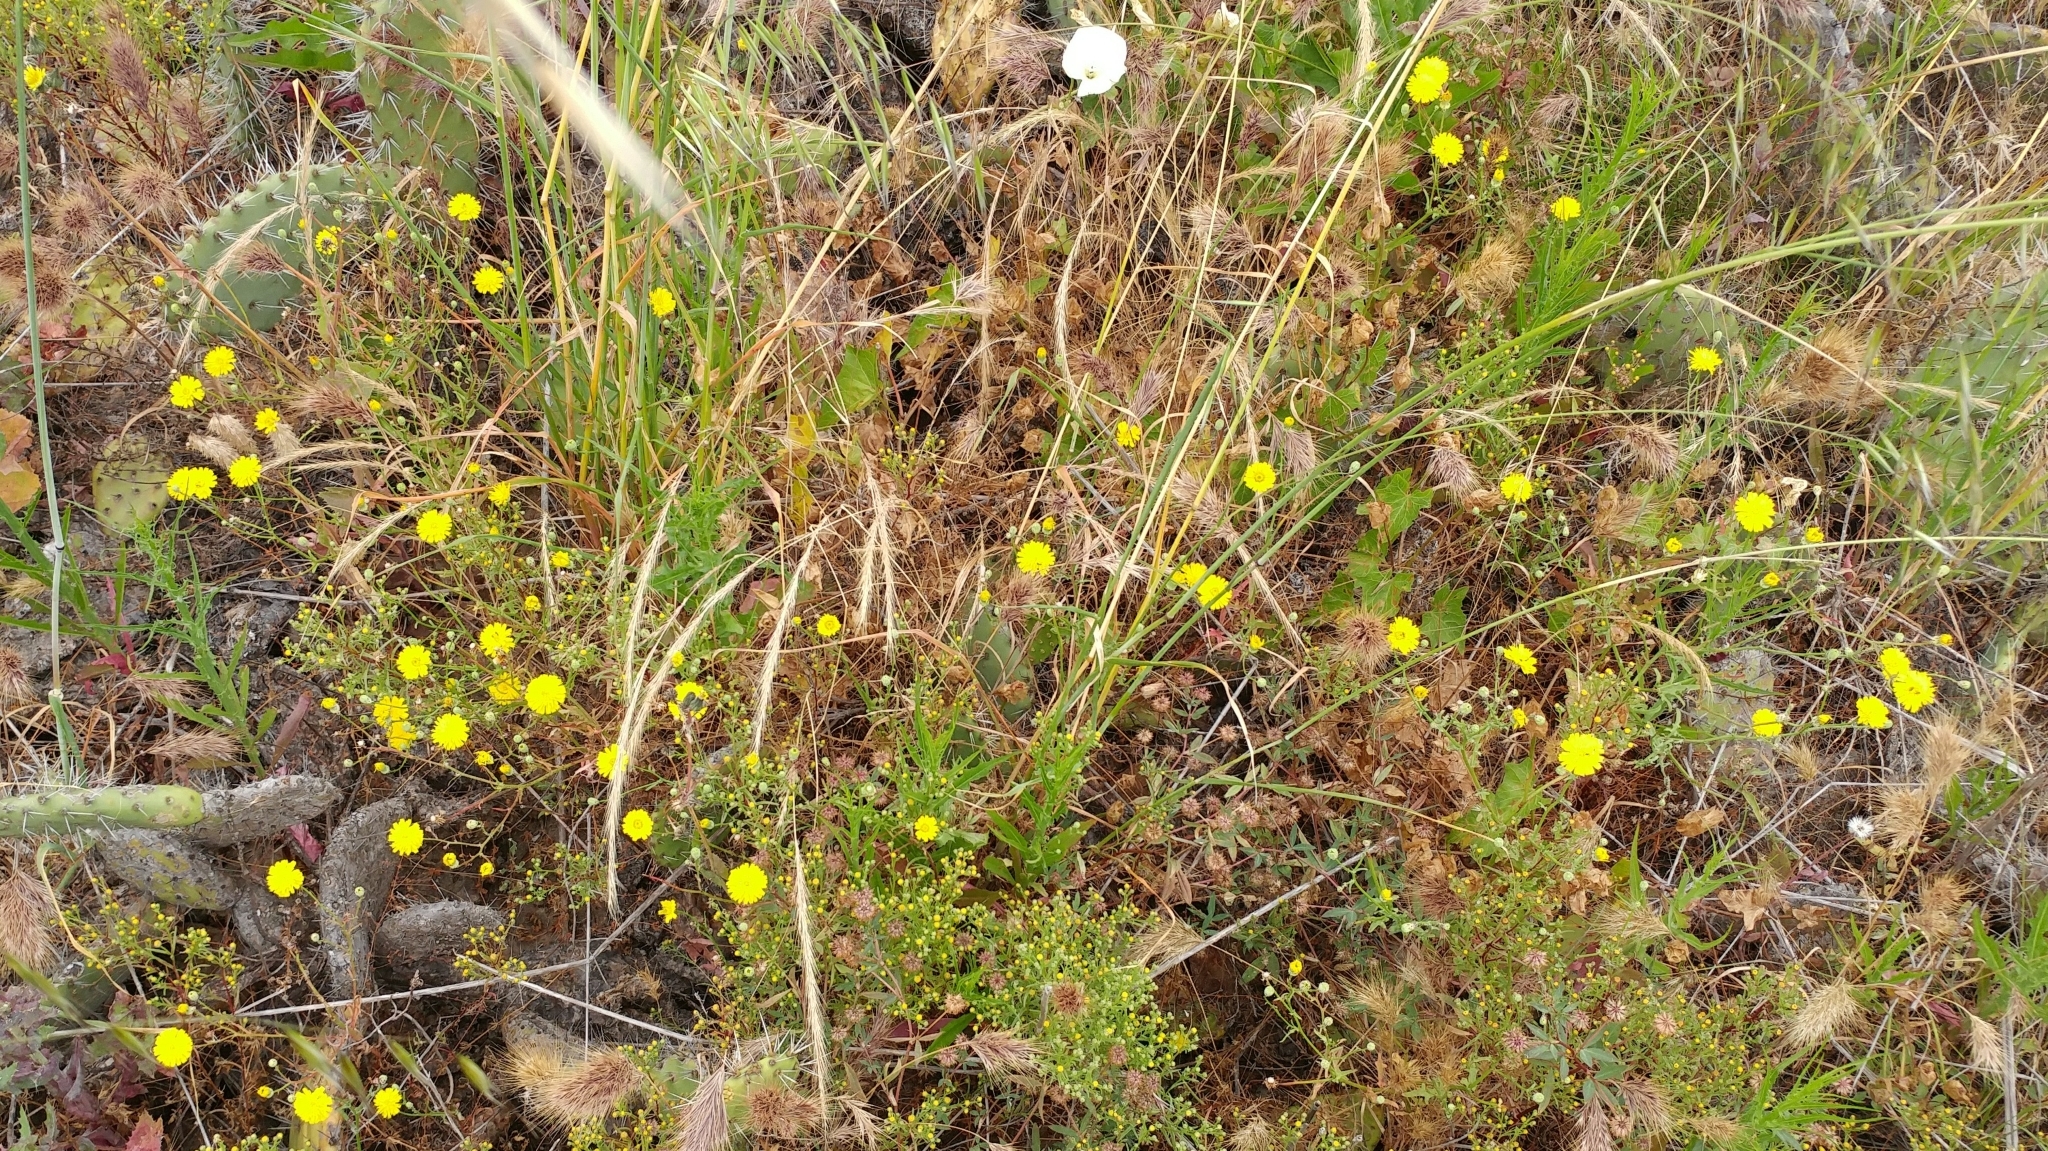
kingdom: Plantae
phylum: Tracheophyta
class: Magnoliopsida
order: Asterales
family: Asteraceae
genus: Malacothrix
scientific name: Malacothrix foliosa
